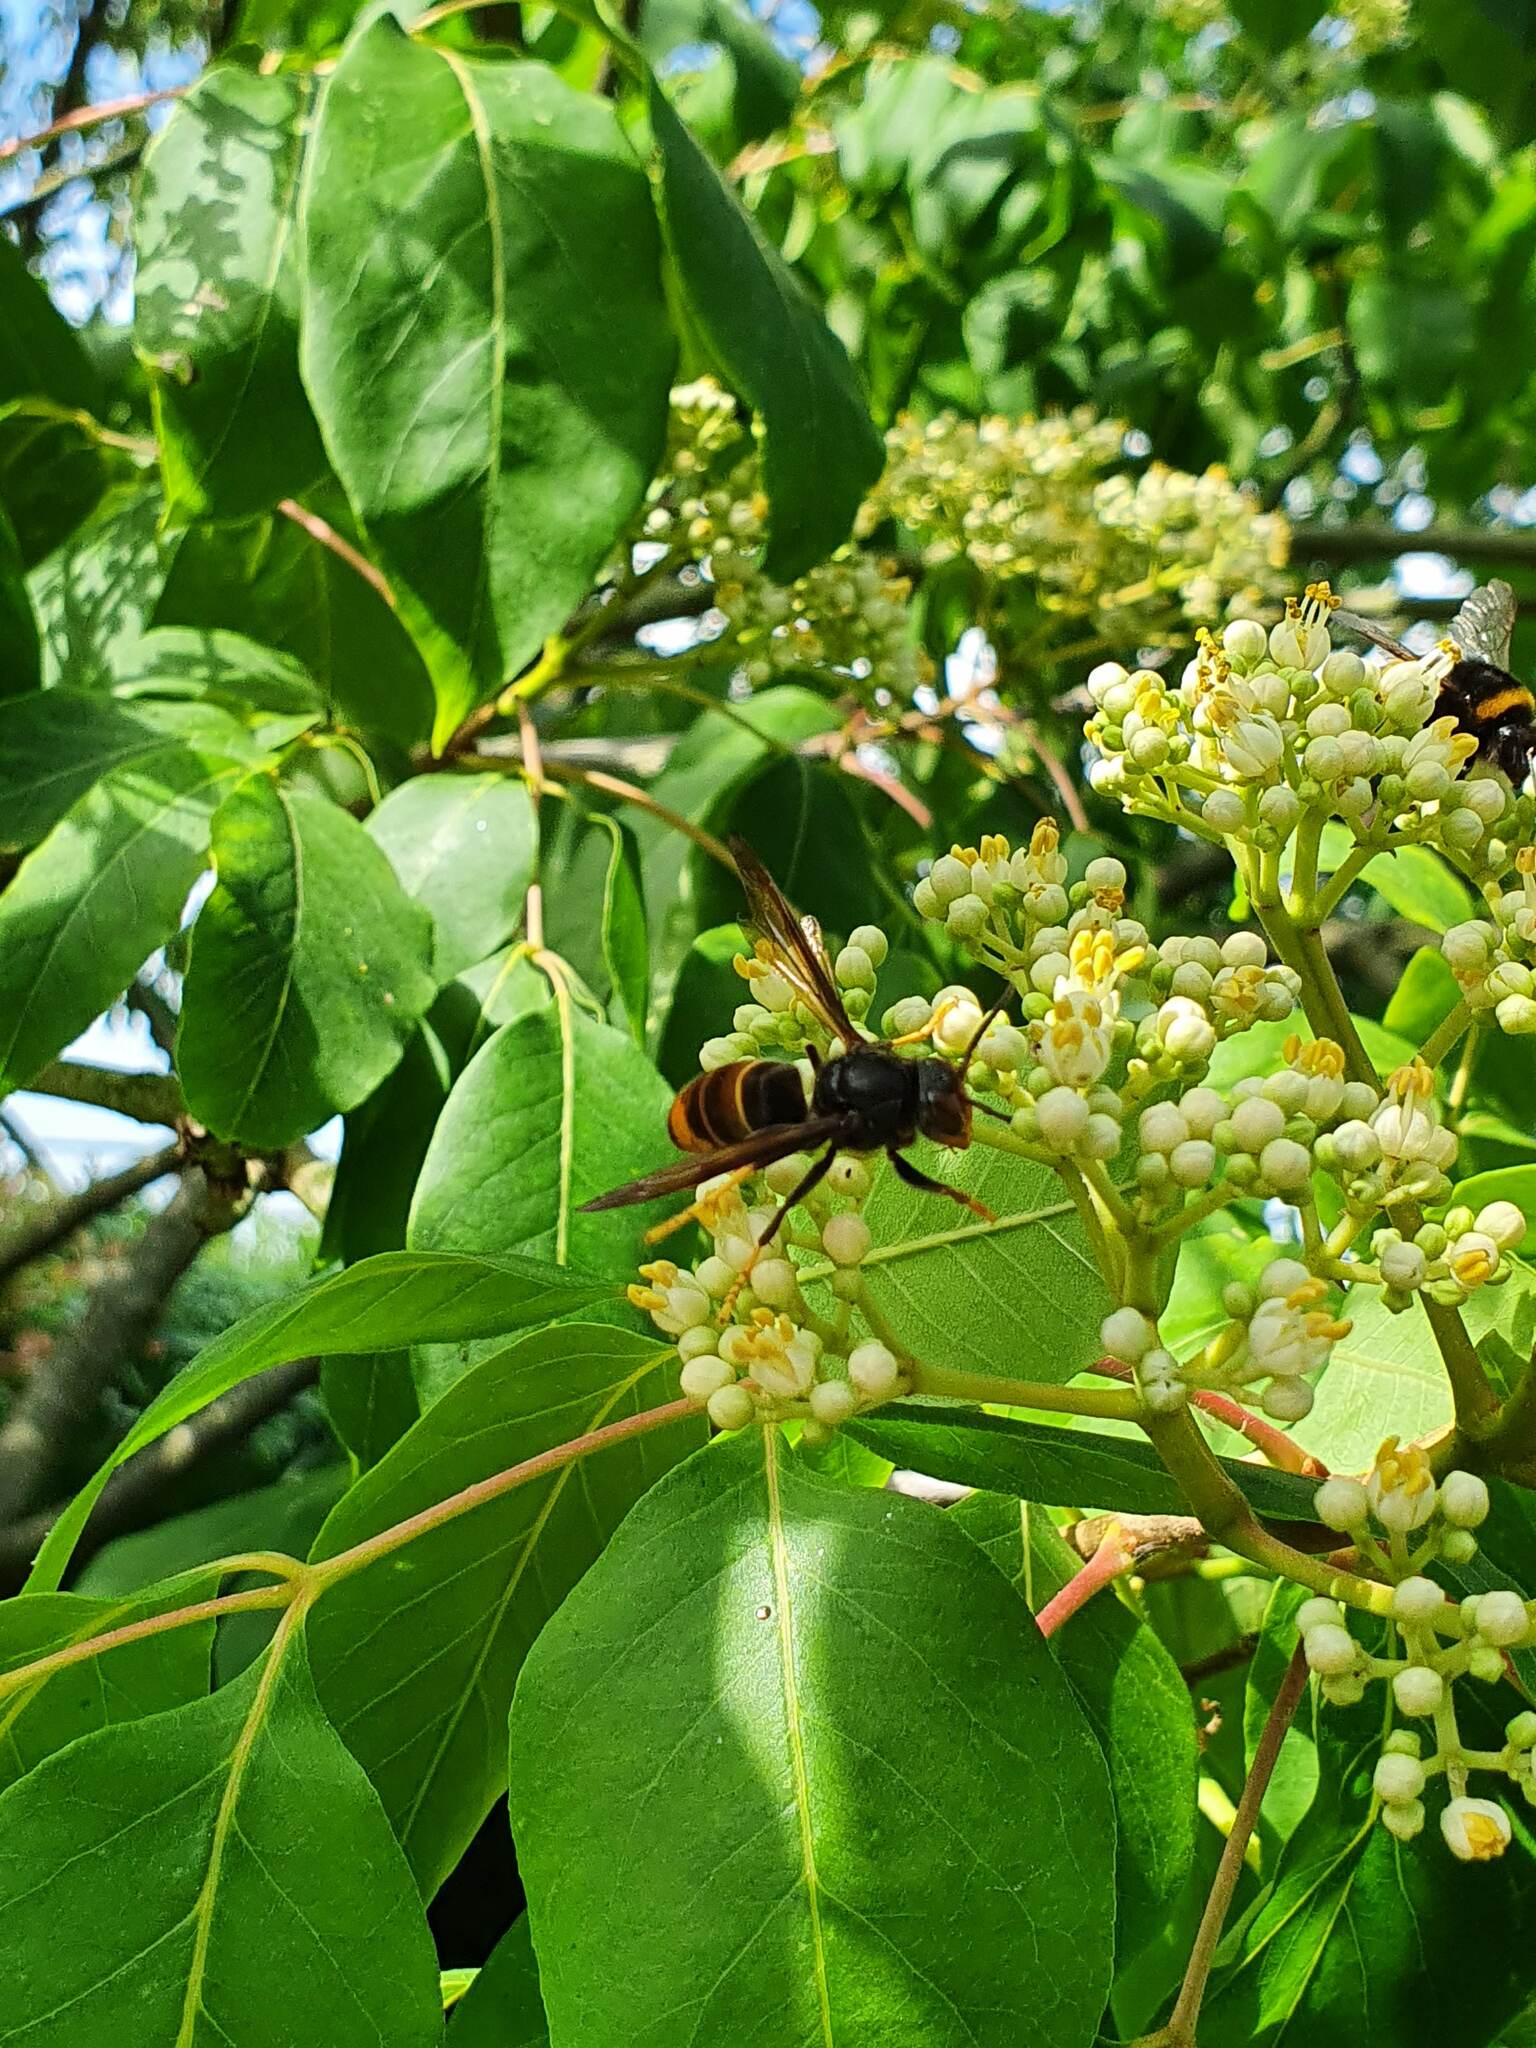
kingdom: Animalia
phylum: Arthropoda
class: Insecta
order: Hymenoptera
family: Vespidae
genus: Vespa
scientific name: Vespa velutina
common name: Asian hornet
